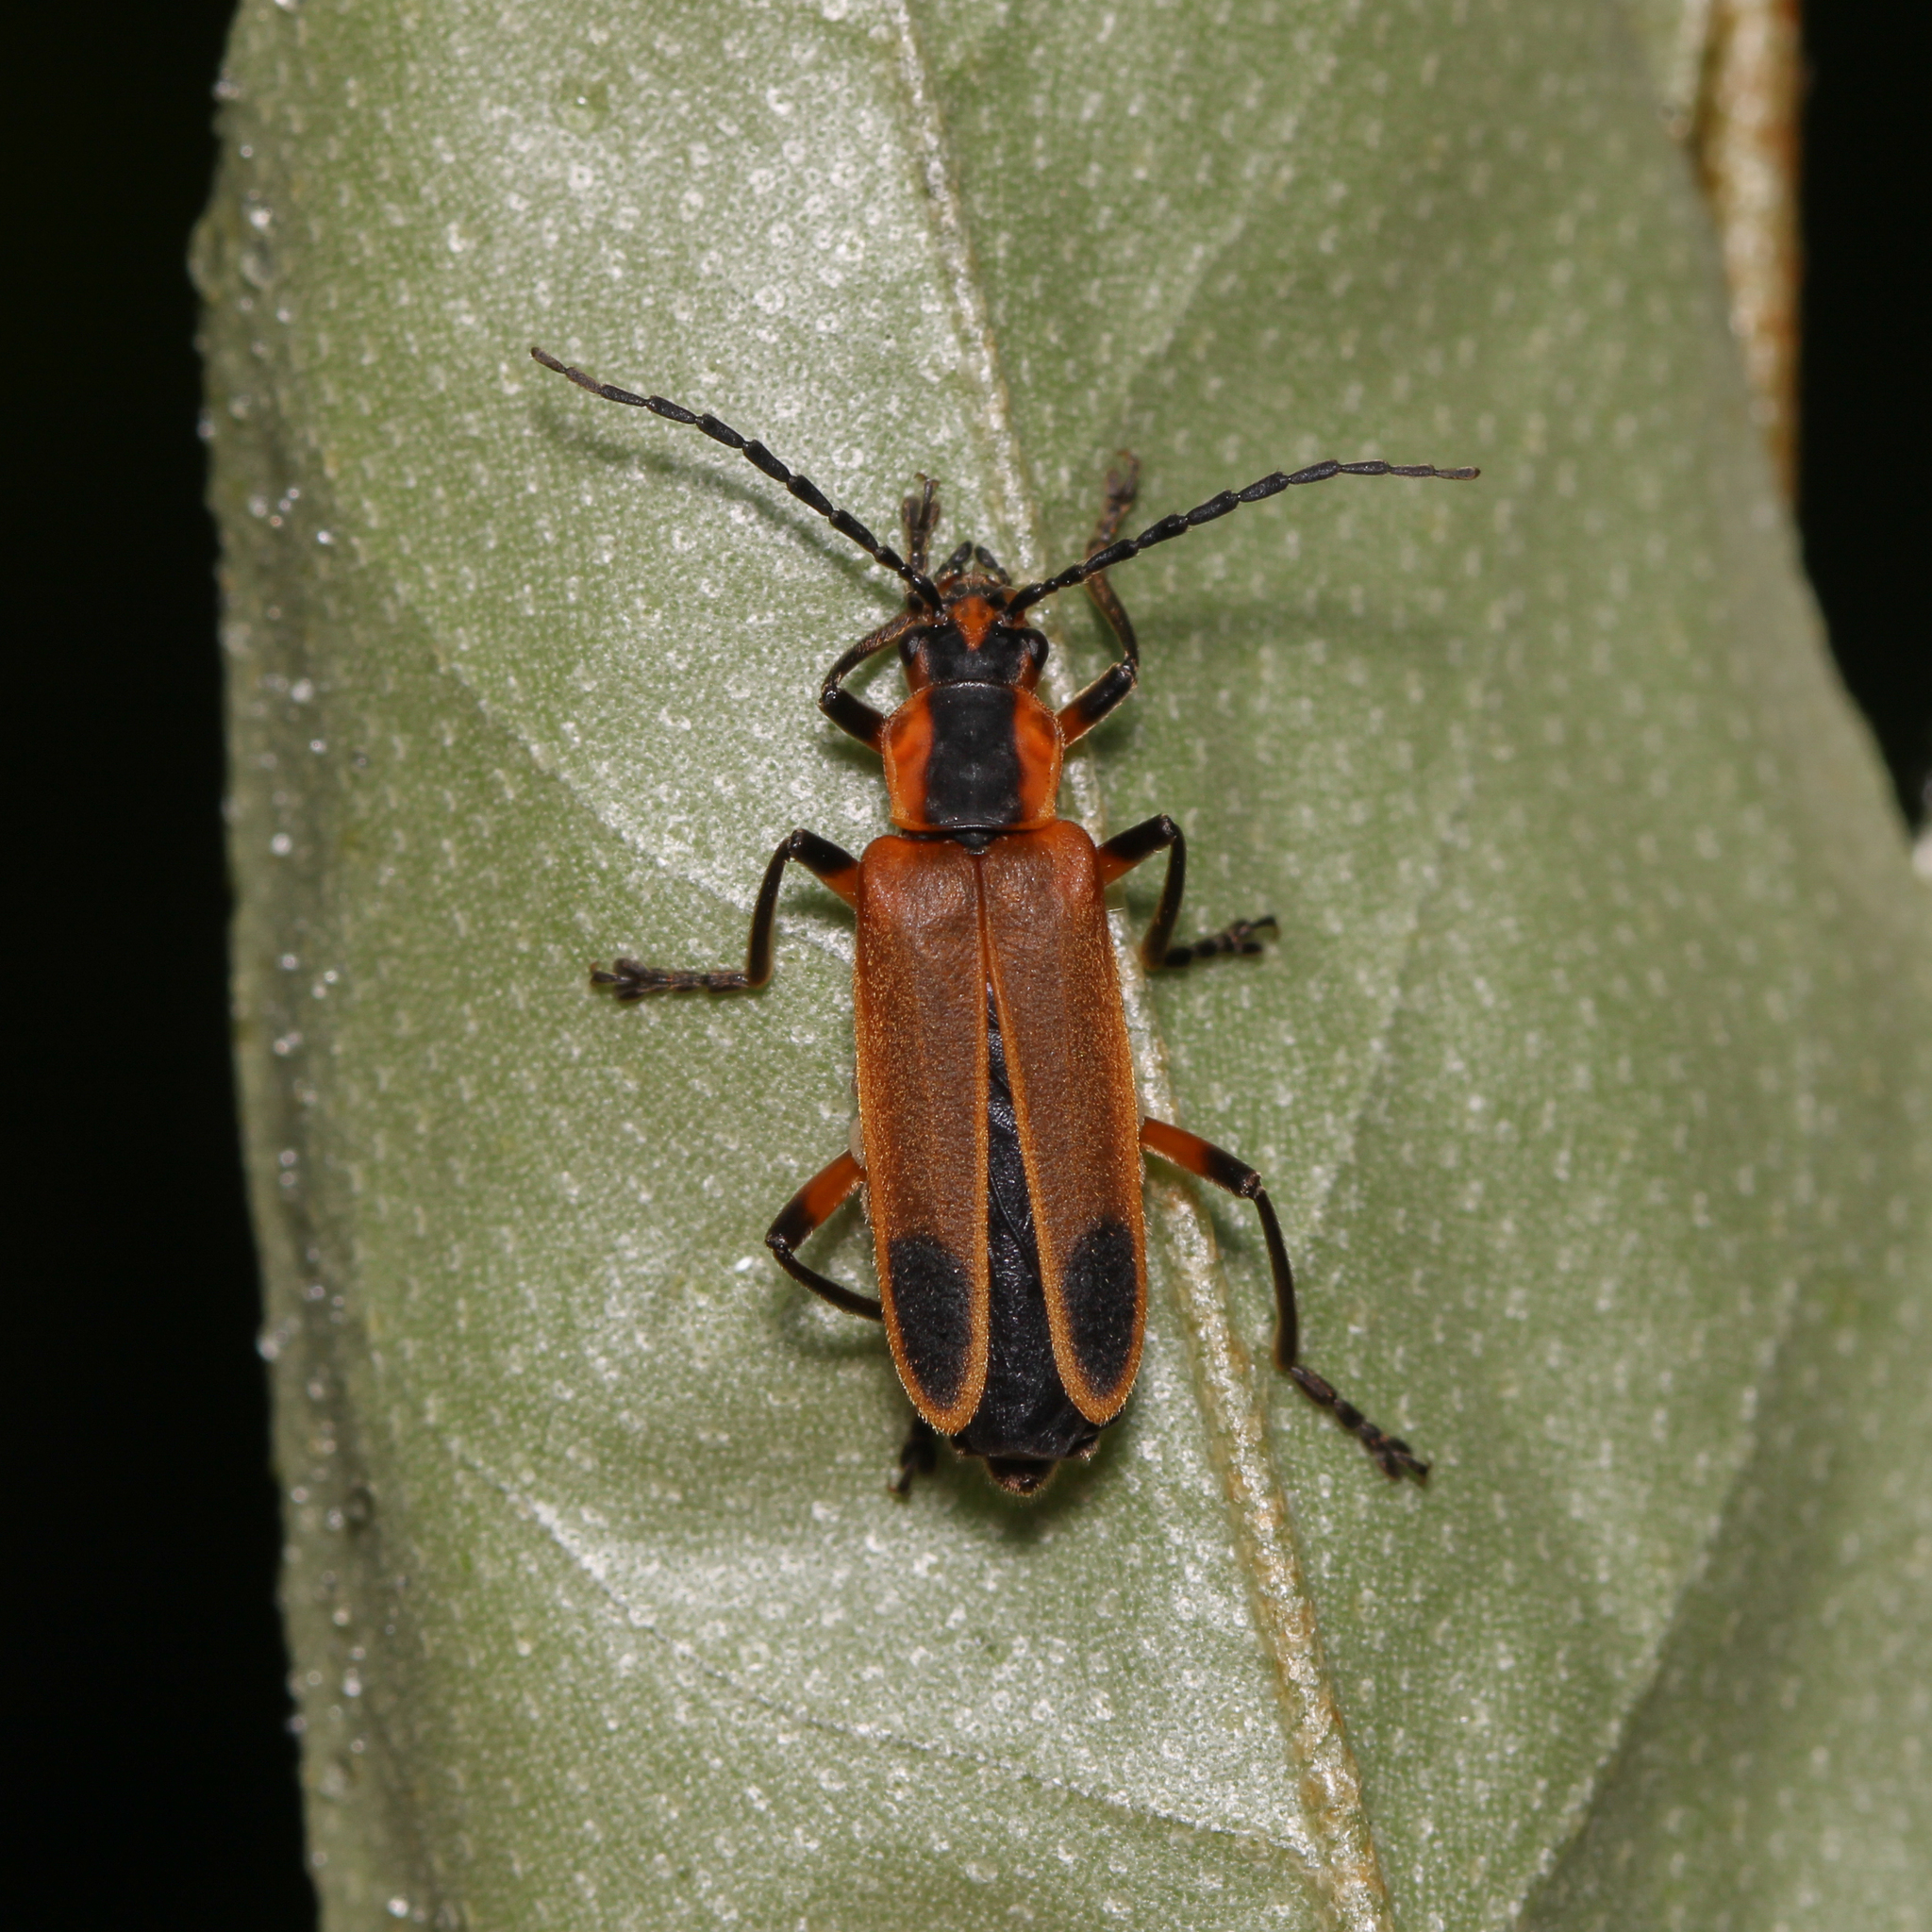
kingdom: Animalia
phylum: Arthropoda
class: Insecta
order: Coleoptera
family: Cantharidae
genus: Chauliognathus
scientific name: Chauliognathus marginatus
